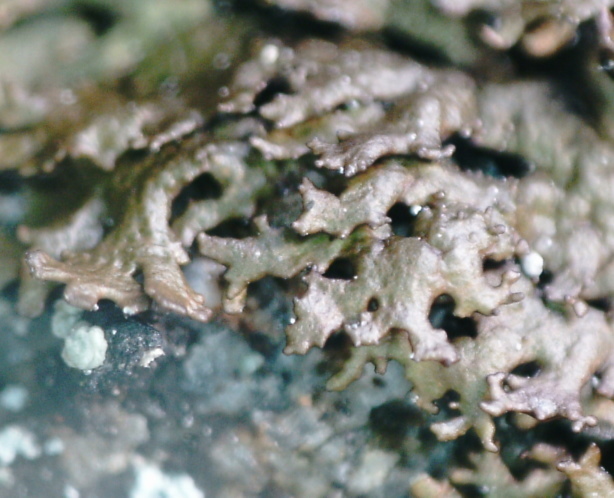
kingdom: Fungi
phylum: Ascomycota
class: Lecanoromycetes
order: Lecanorales
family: Parmeliaceae
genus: Montanelia
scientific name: Montanelia panniformis
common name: Shingled camouflage lichen
